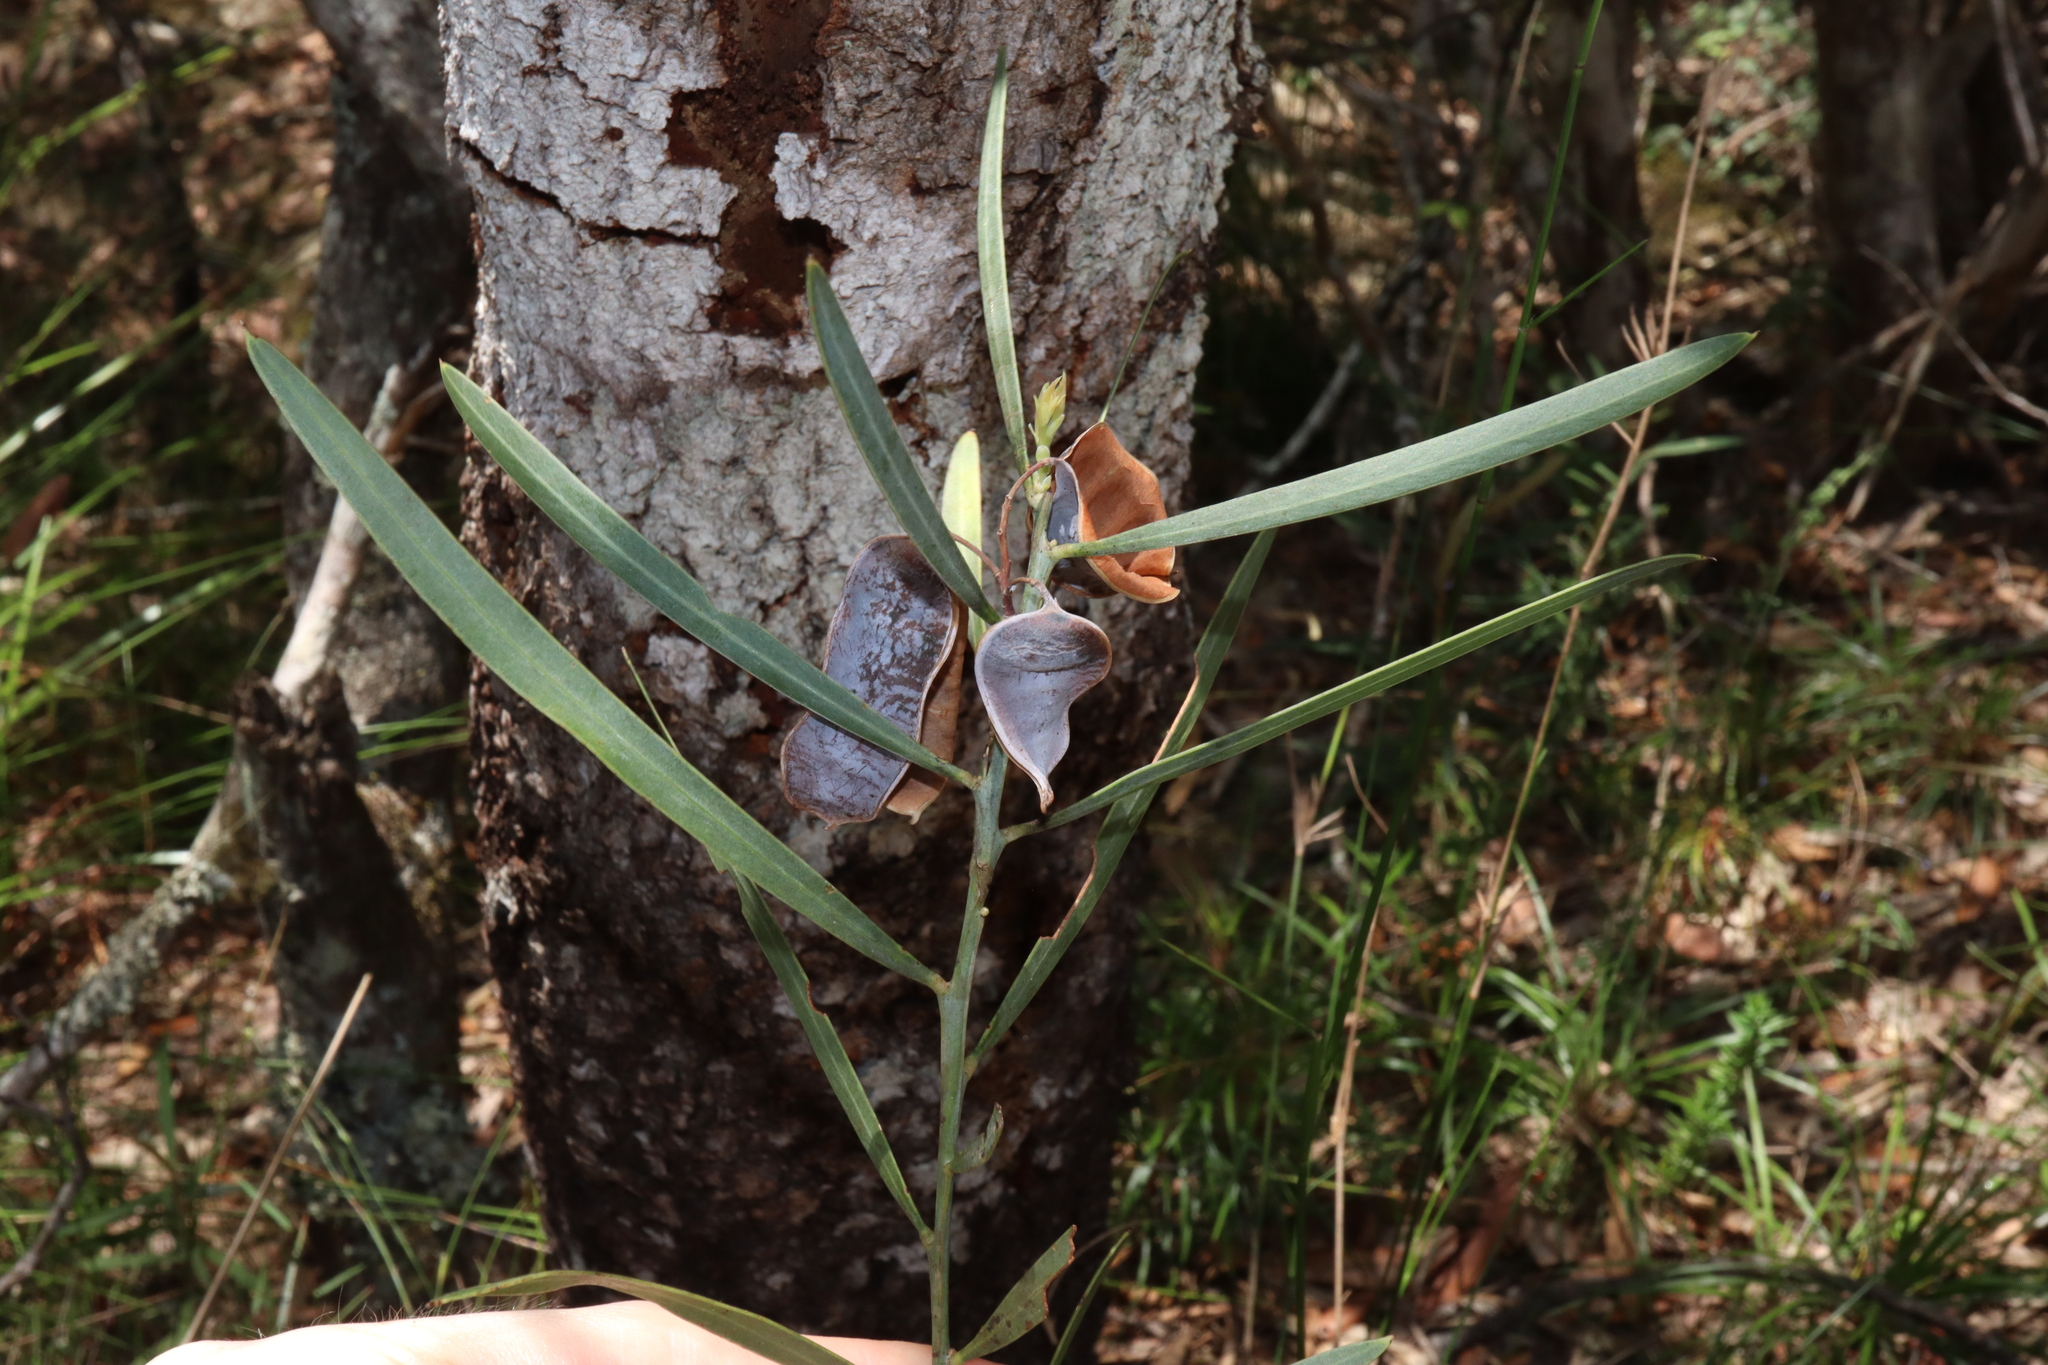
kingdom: Plantae
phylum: Tracheophyta
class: Magnoliopsida
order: Fabales
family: Fabaceae
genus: Acacia
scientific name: Acacia suaveolens
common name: Sweet acacia
